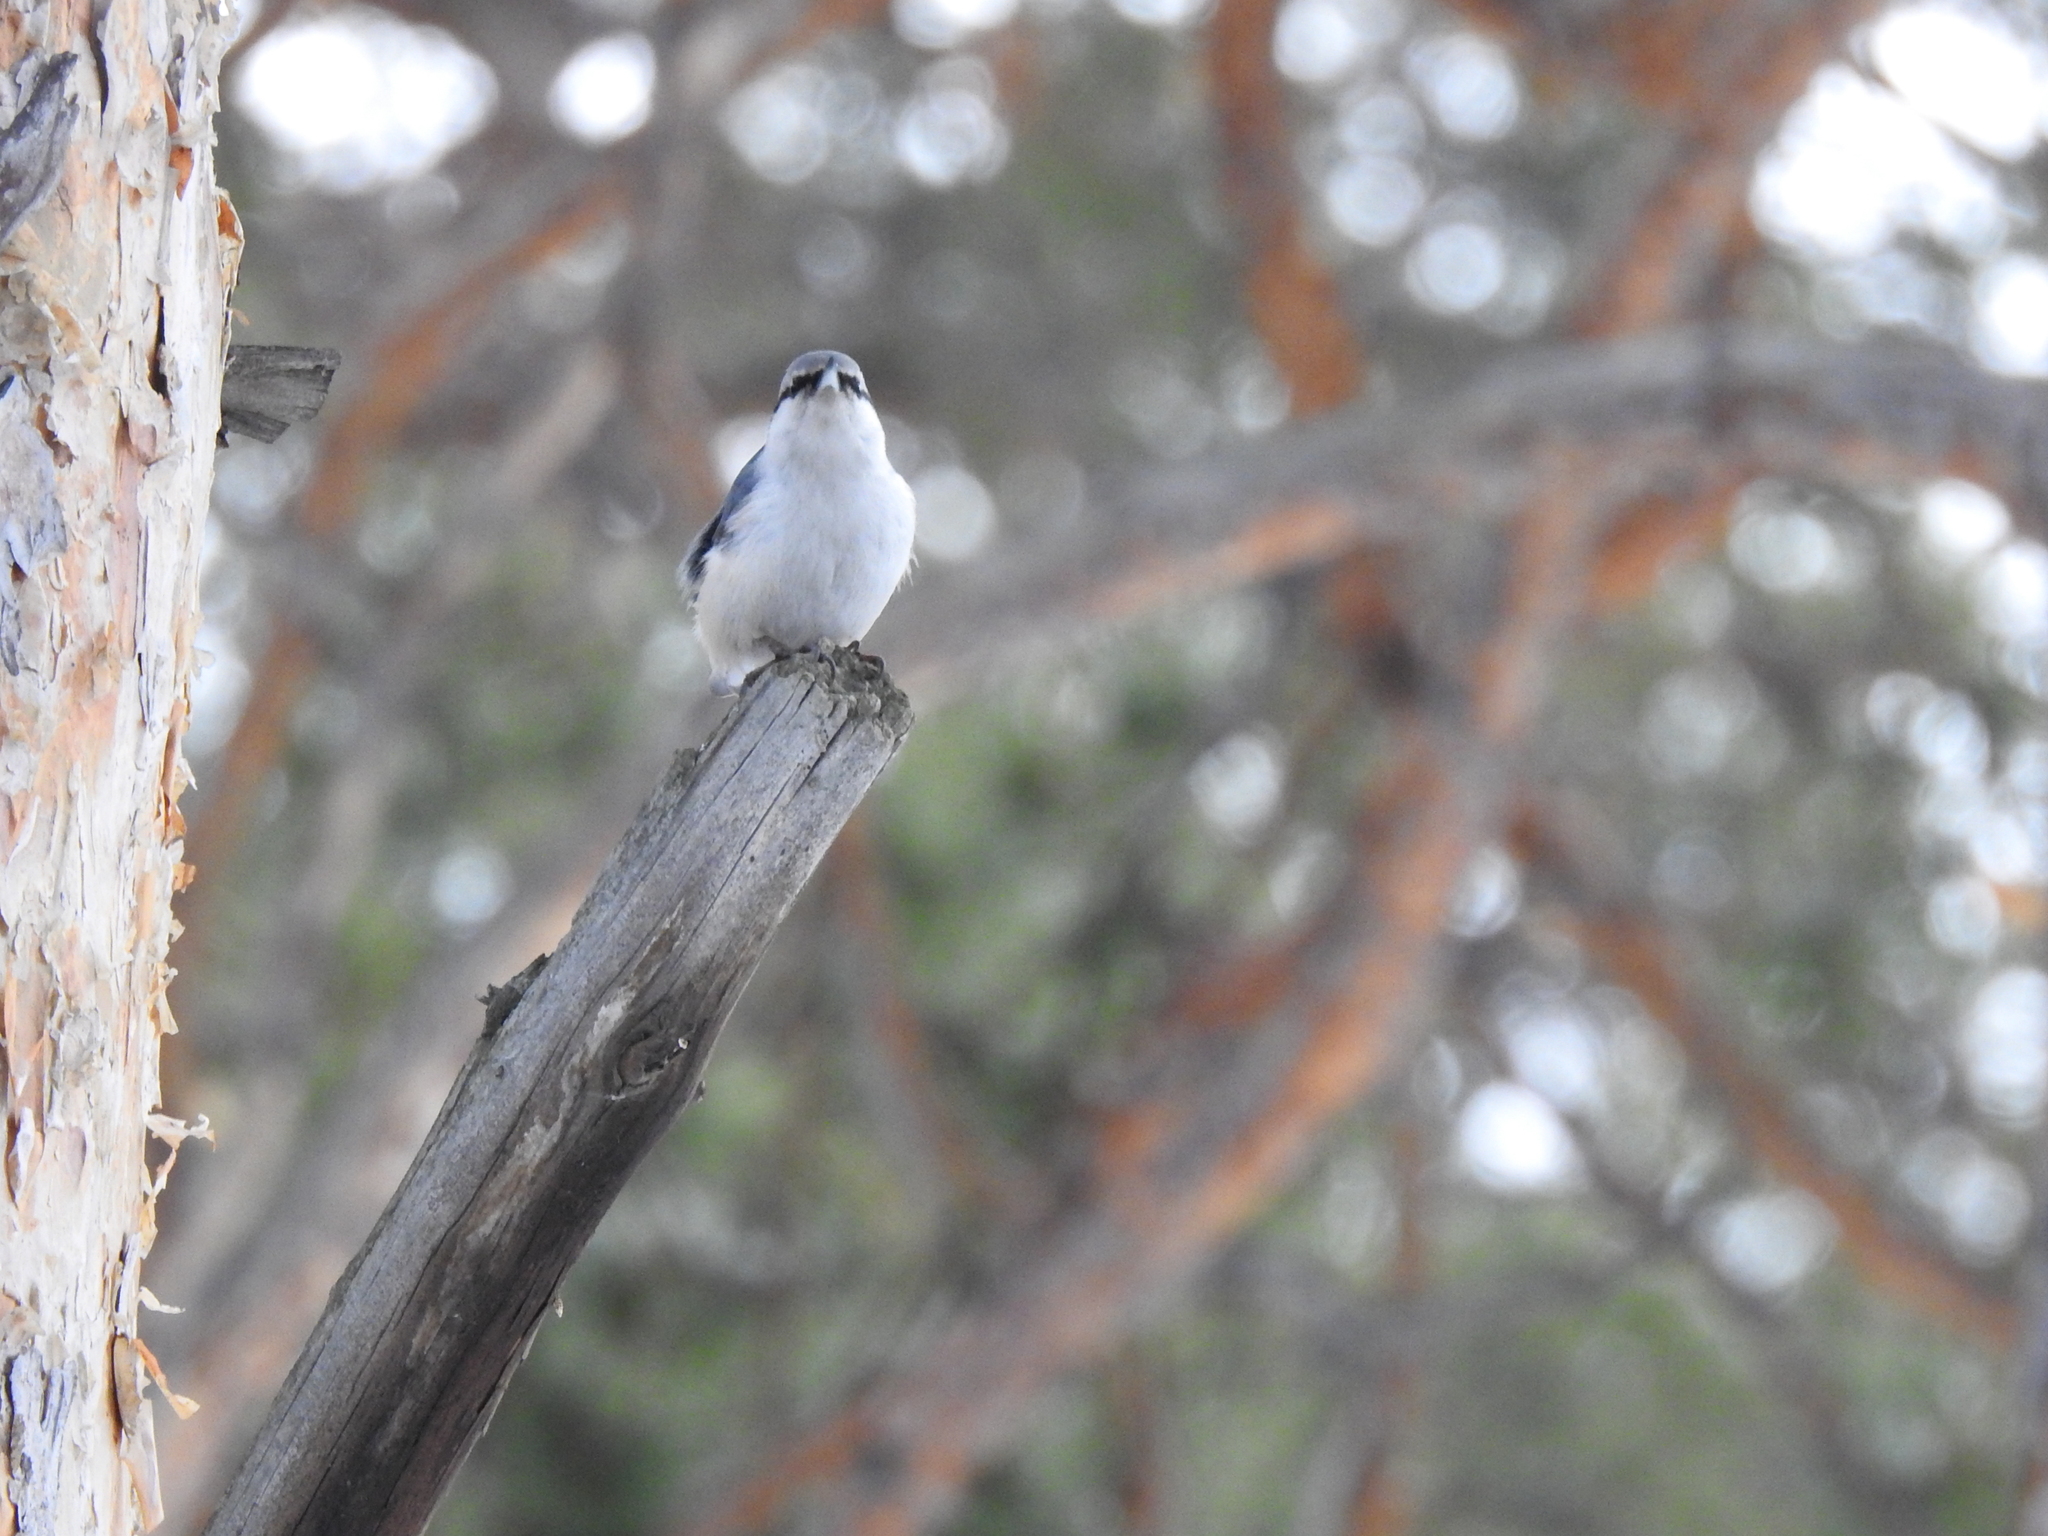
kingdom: Animalia
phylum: Chordata
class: Aves
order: Passeriformes
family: Sittidae
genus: Sitta
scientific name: Sitta europaea
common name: Eurasian nuthatch
